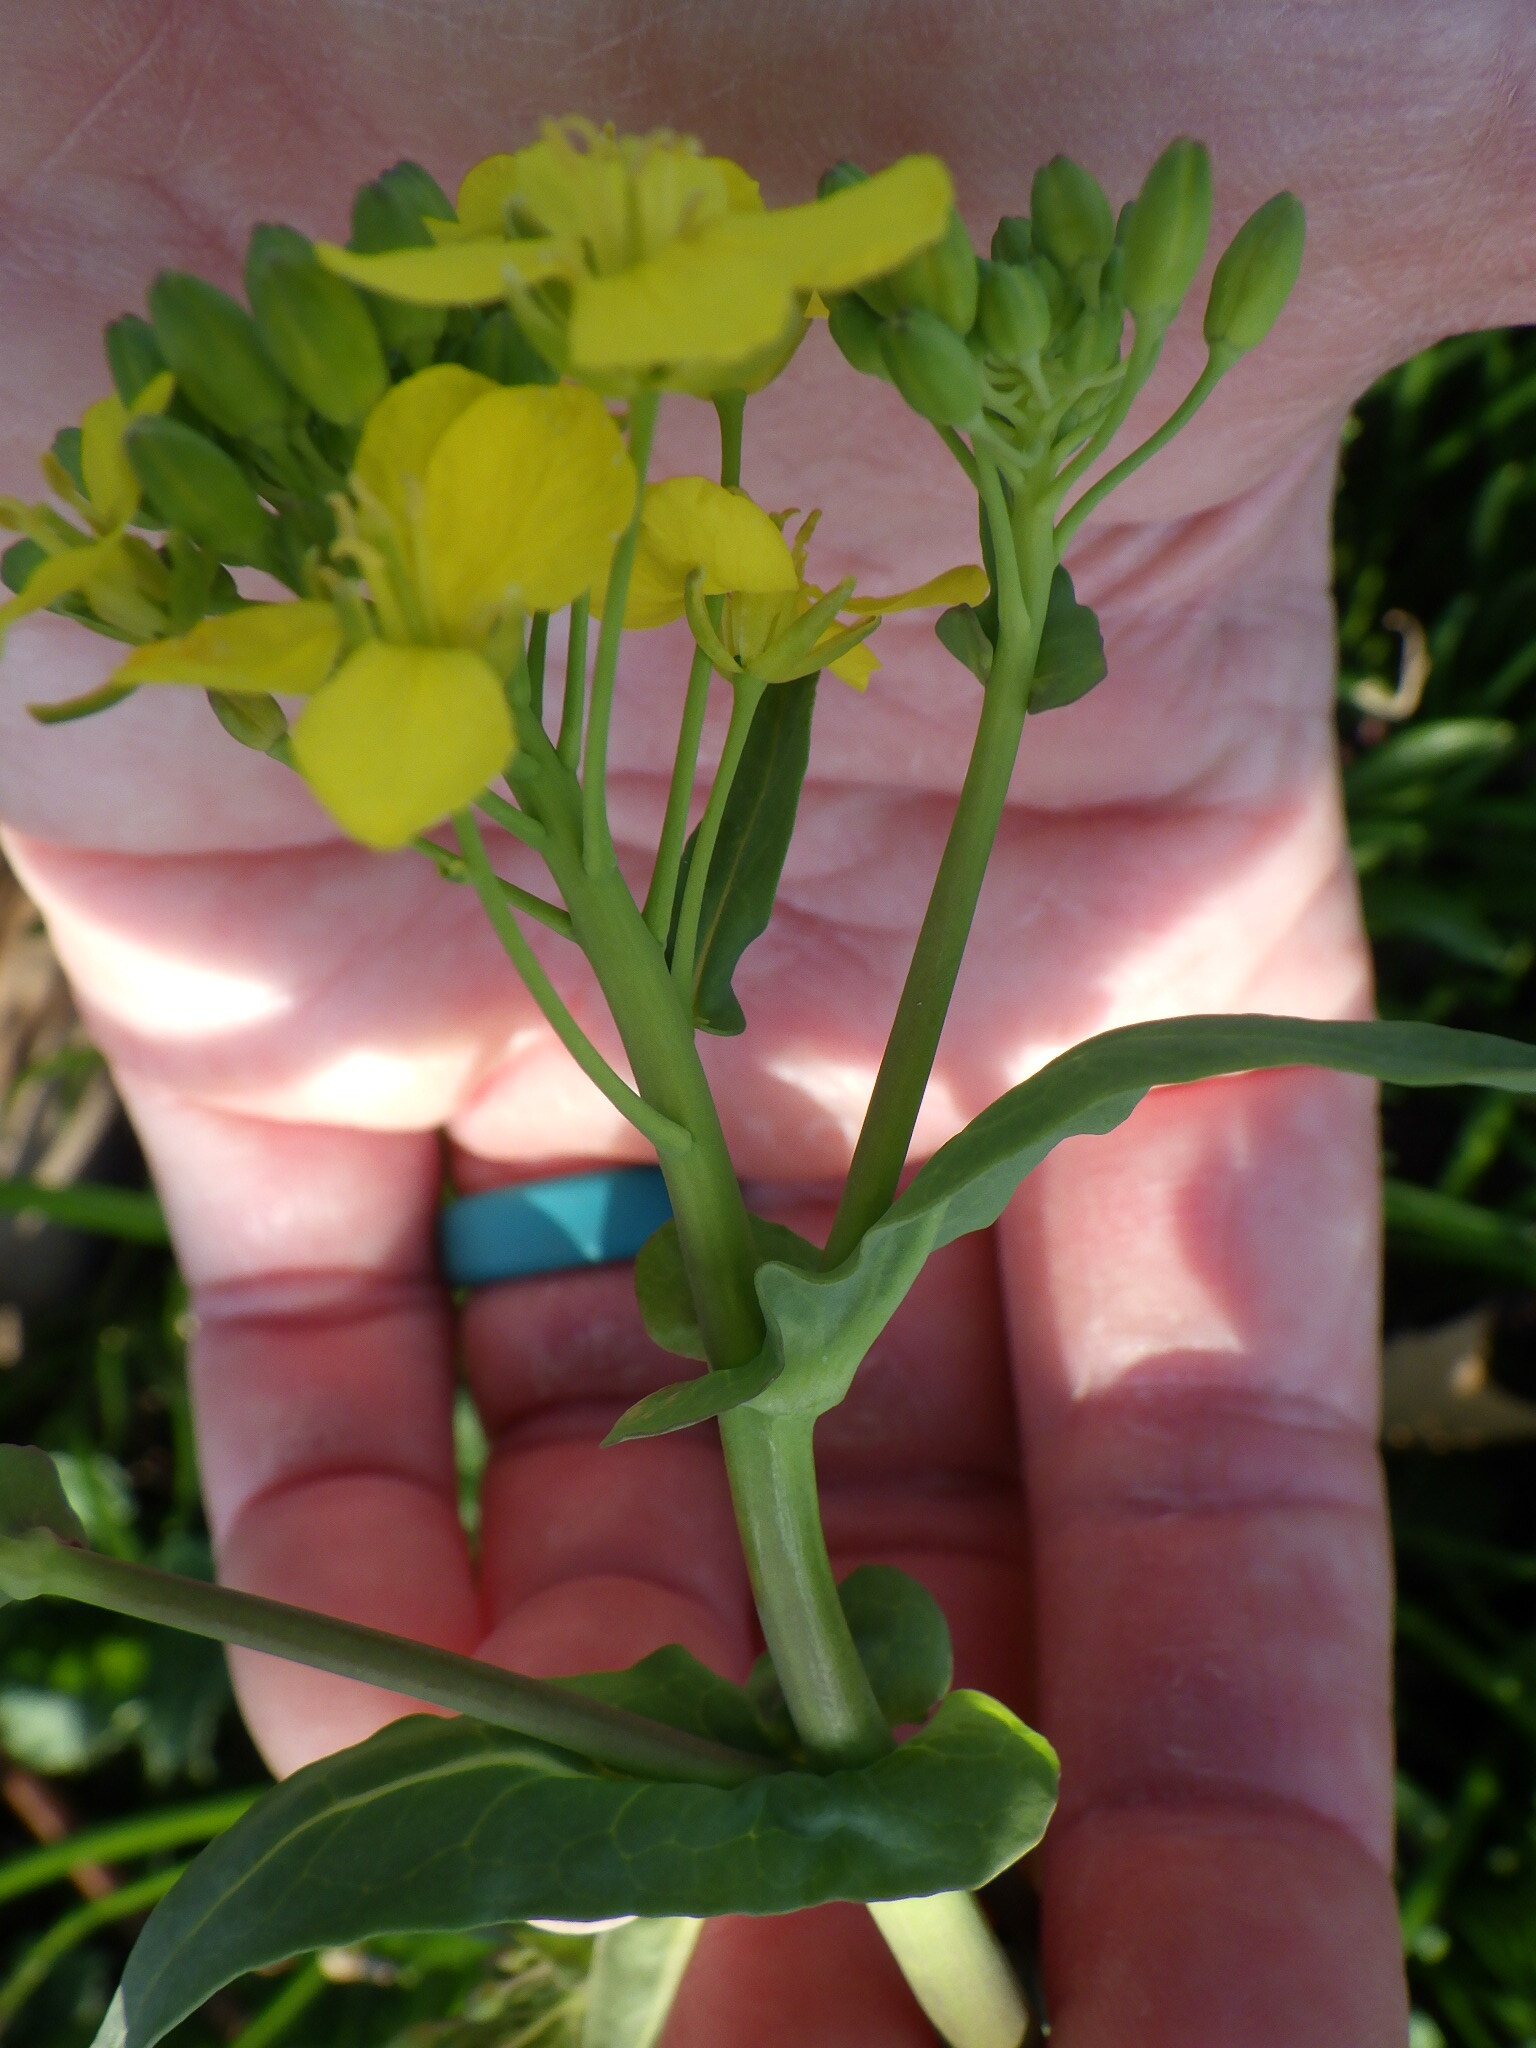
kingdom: Plantae
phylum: Tracheophyta
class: Magnoliopsida
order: Brassicales
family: Brassicaceae
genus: Brassica
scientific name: Brassica rapa
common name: Field mustard
